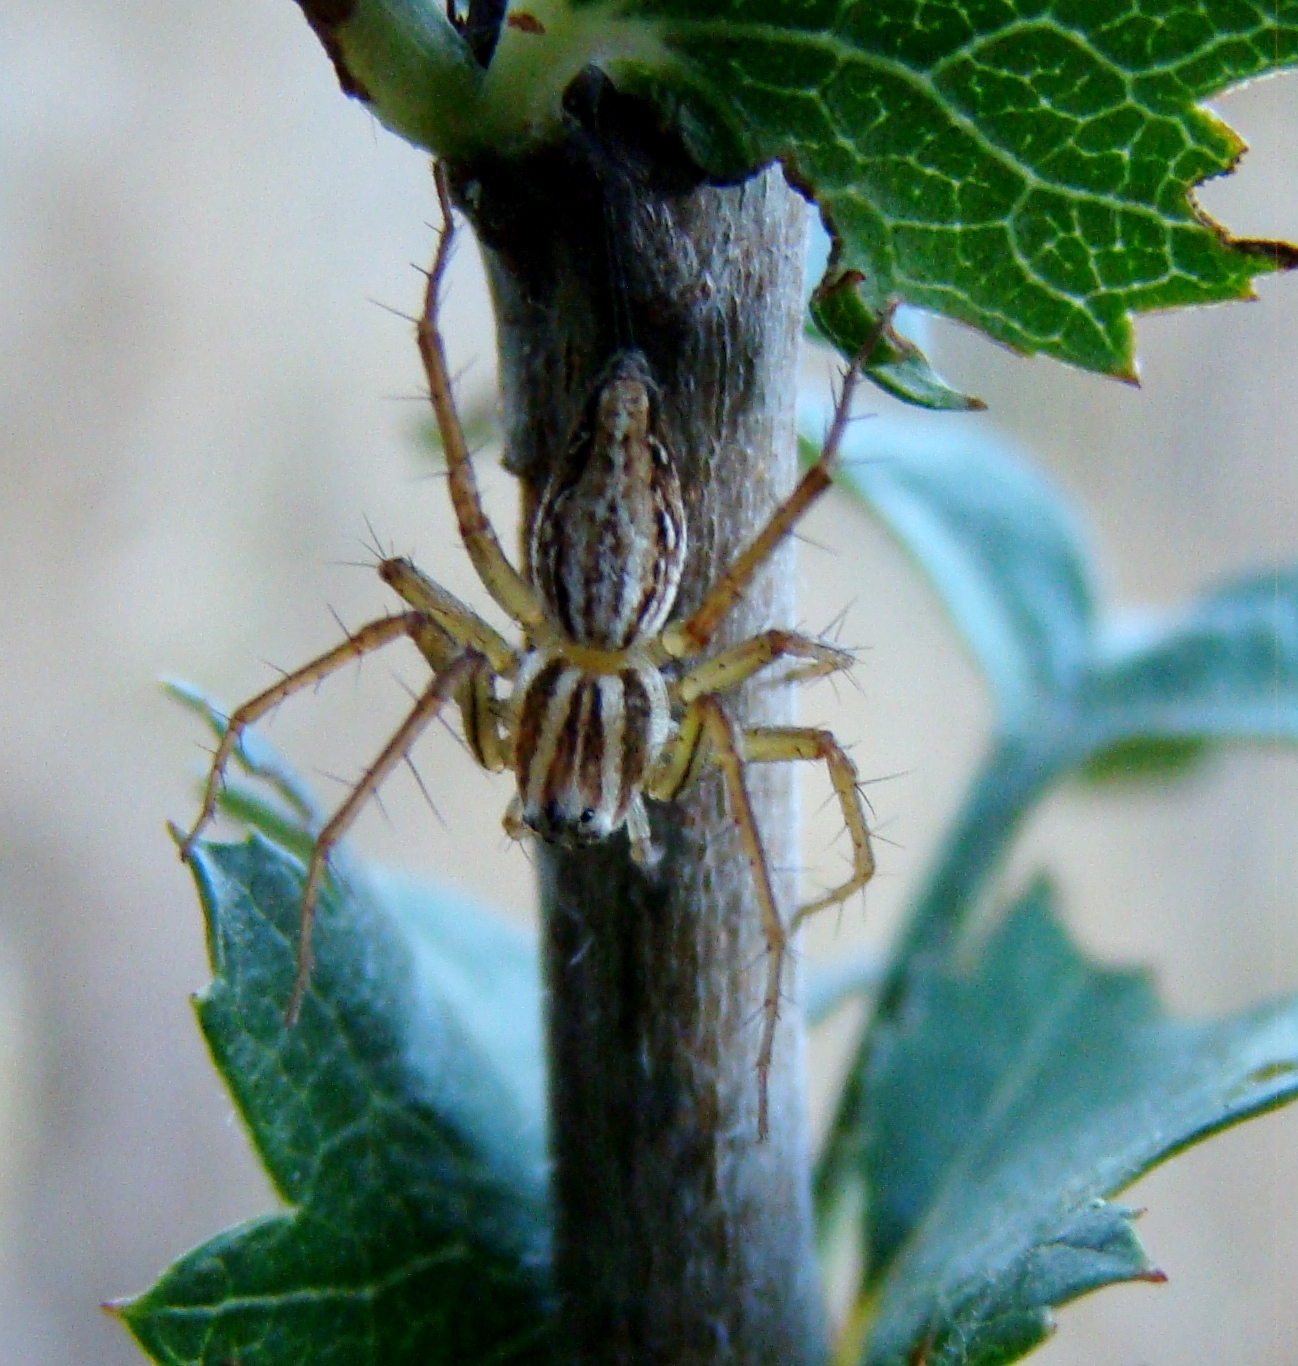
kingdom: Animalia
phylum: Arthropoda
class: Arachnida
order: Araneae
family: Oxyopidae
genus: Oxyopes
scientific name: Oxyopes gracilipes
